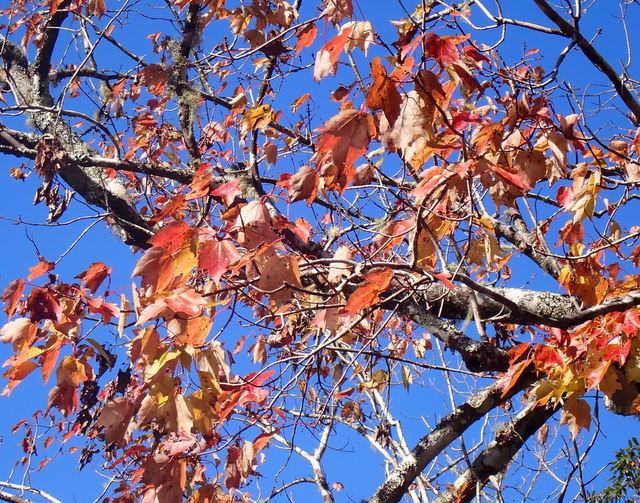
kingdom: Plantae
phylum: Tracheophyta
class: Magnoliopsida
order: Sapindales
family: Sapindaceae
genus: Acer
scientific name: Acer rubrum
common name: Red maple
